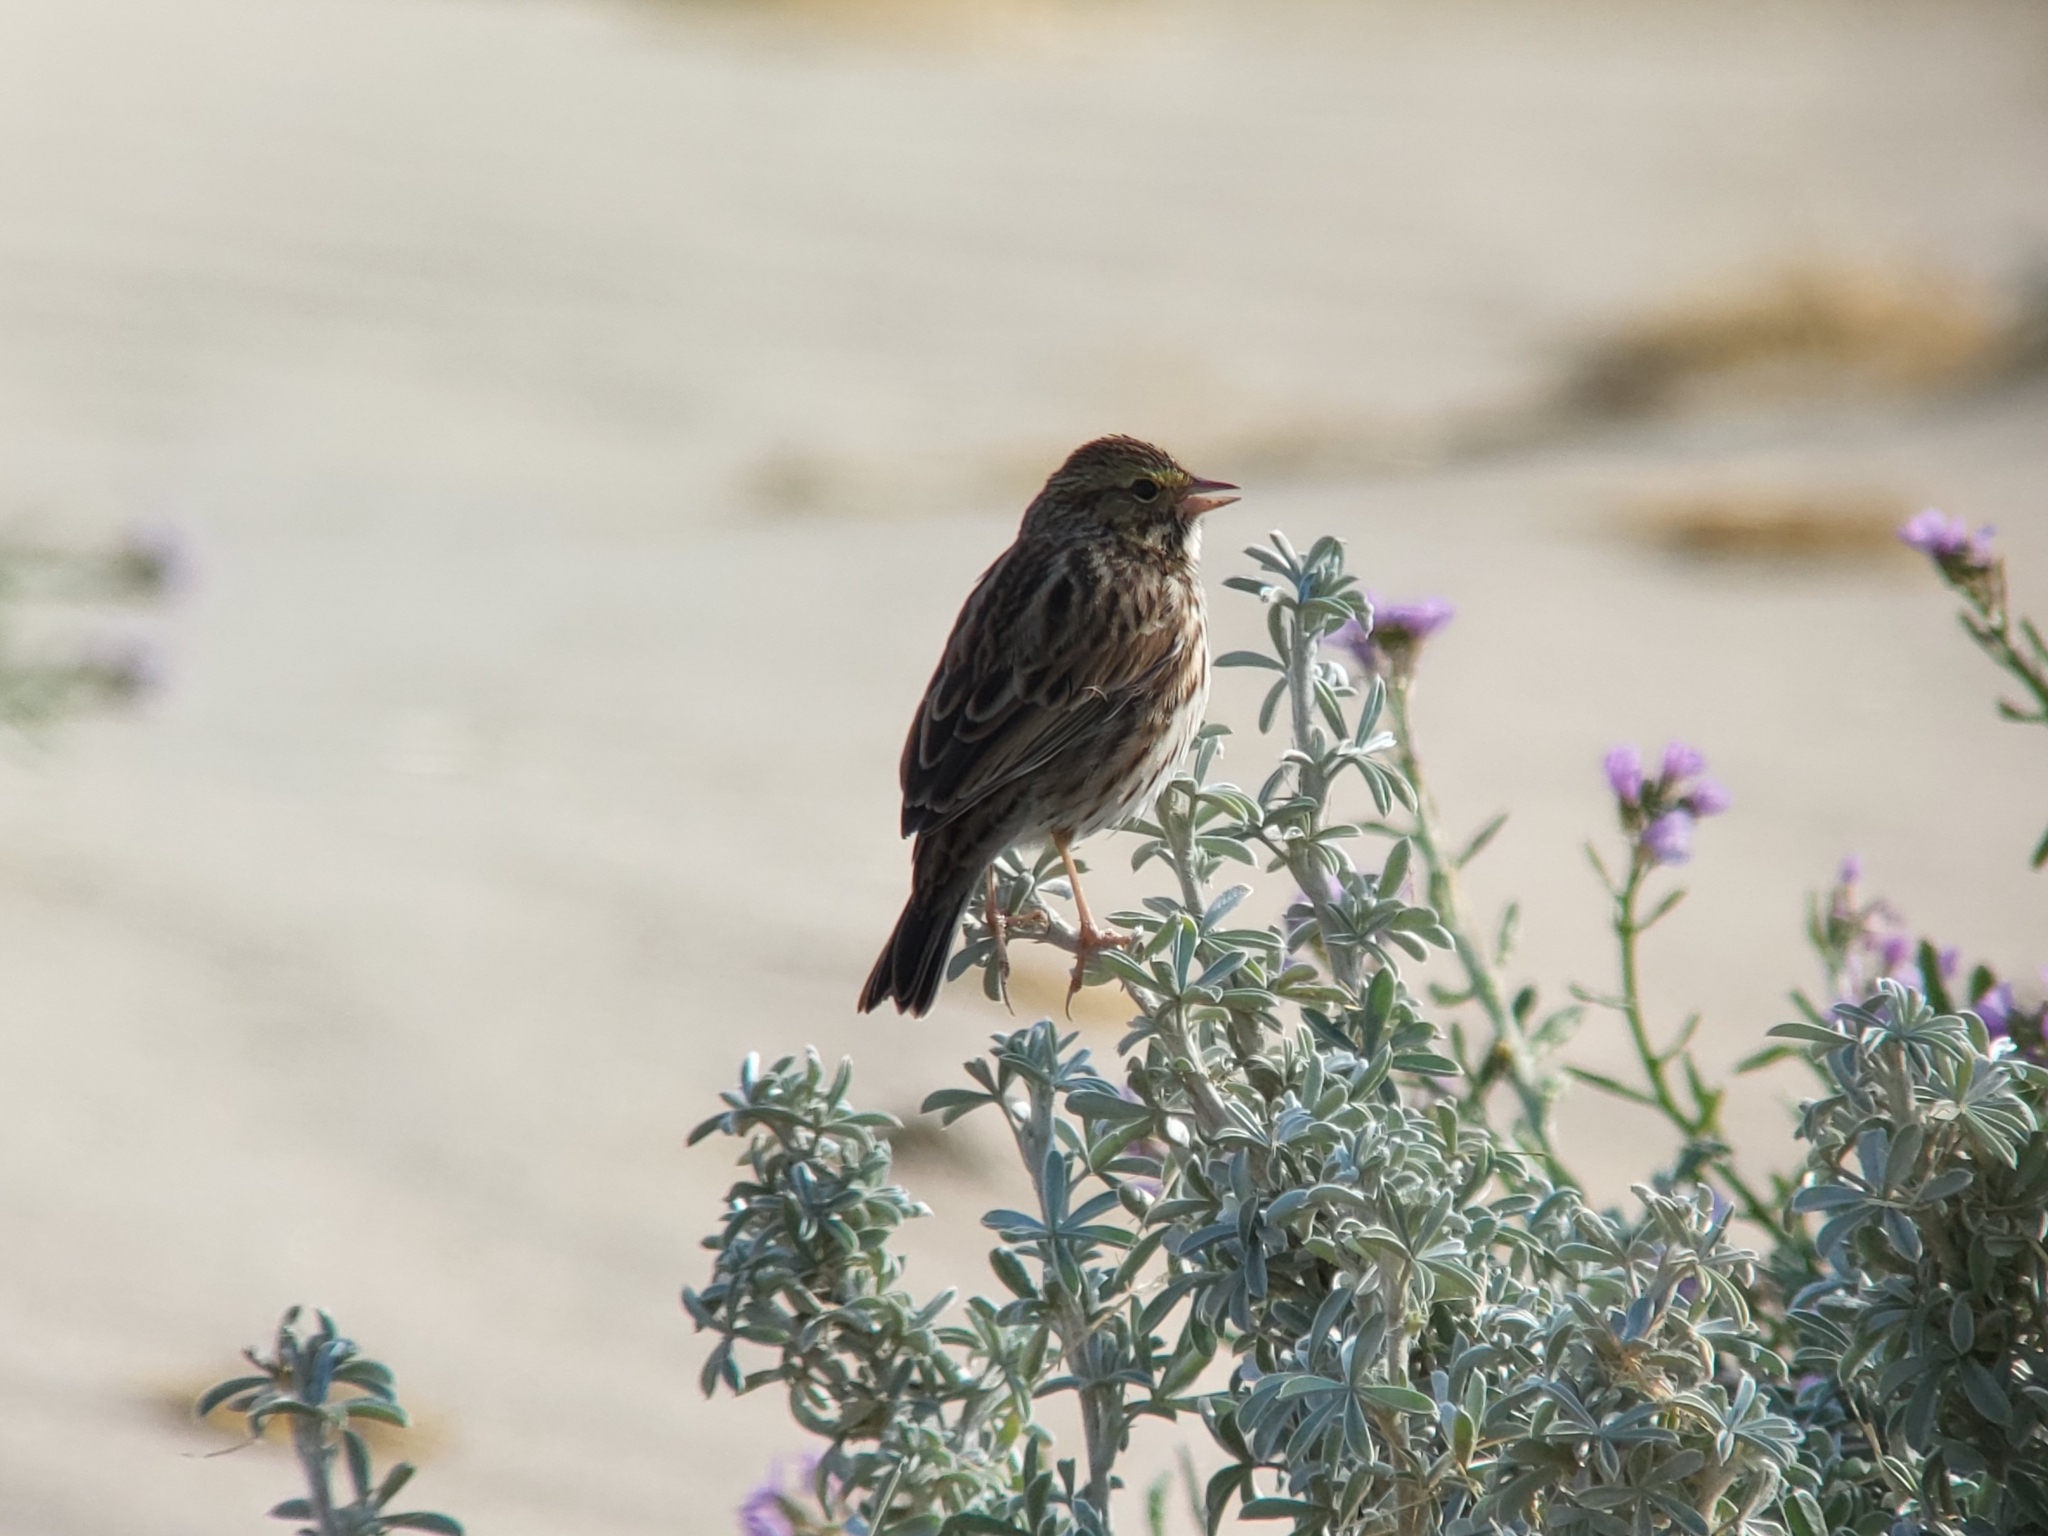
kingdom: Animalia
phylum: Chordata
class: Aves
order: Passeriformes
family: Passerellidae
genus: Passerculus
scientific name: Passerculus sandwichensis
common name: Savannah sparrow
